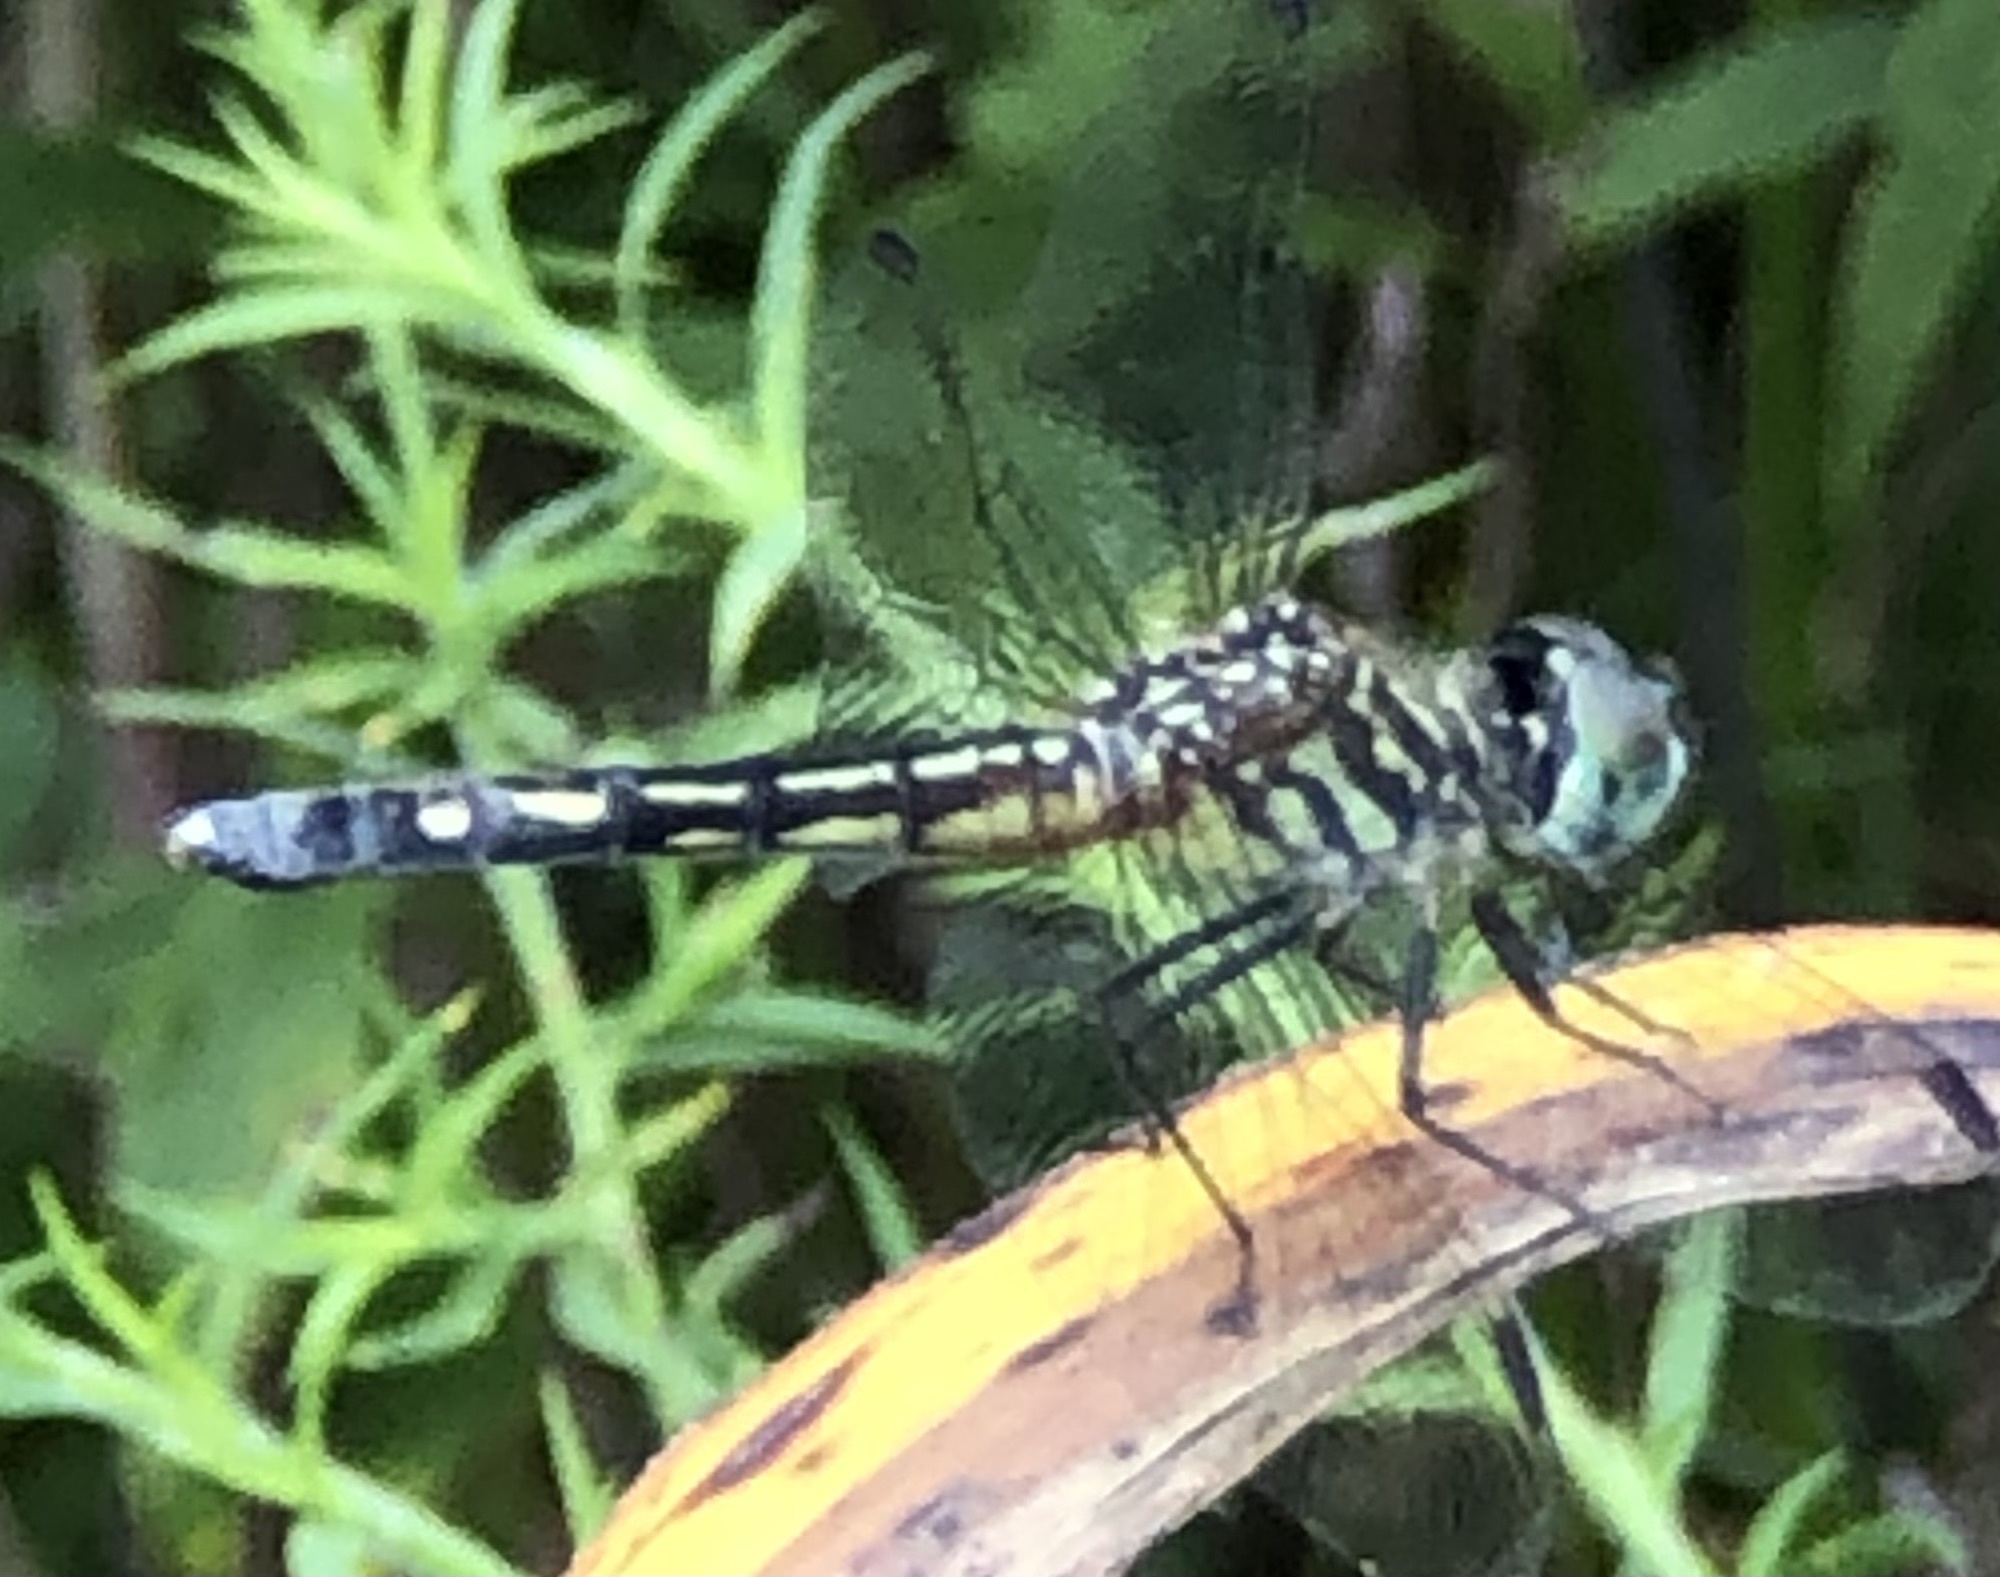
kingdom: Animalia
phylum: Arthropoda
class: Insecta
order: Odonata
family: Libellulidae
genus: Pachydiplax
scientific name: Pachydiplax longipennis
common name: Blue dasher
